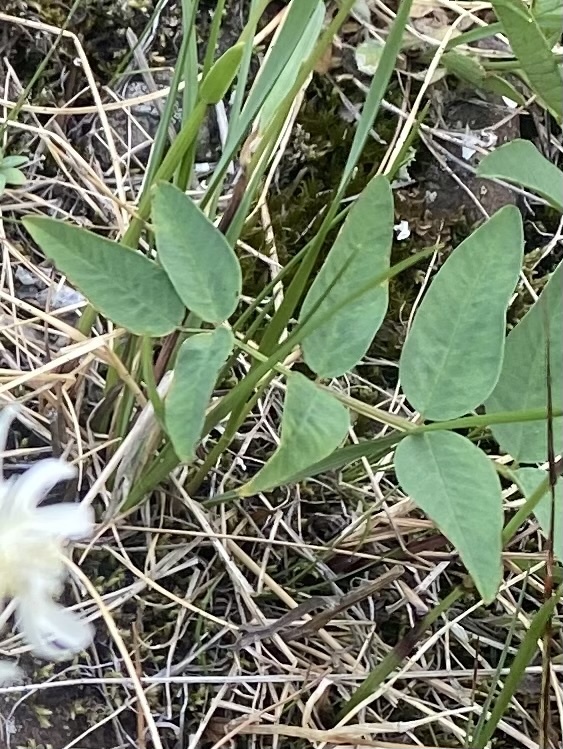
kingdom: Plantae
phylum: Tracheophyta
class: Magnoliopsida
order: Fabales
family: Fabaceae
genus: Hedysarum
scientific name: Hedysarum hedysaroides
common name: Alpine french-honeysuckle
